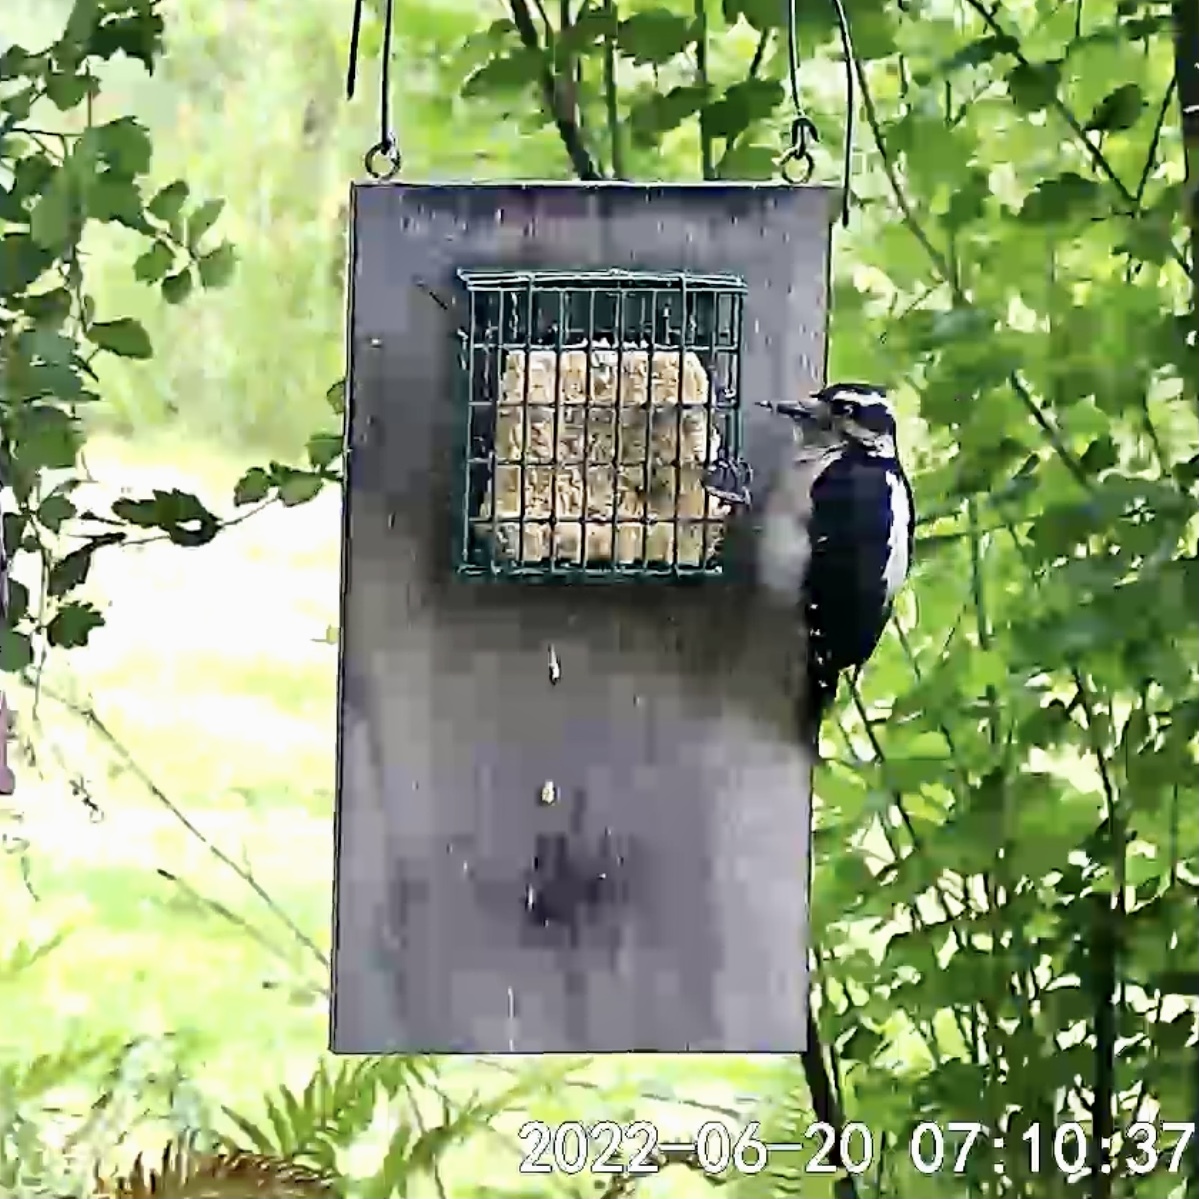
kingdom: Animalia
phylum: Chordata
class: Aves
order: Piciformes
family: Picidae
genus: Leuconotopicus
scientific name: Leuconotopicus villosus
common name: Hairy woodpecker
